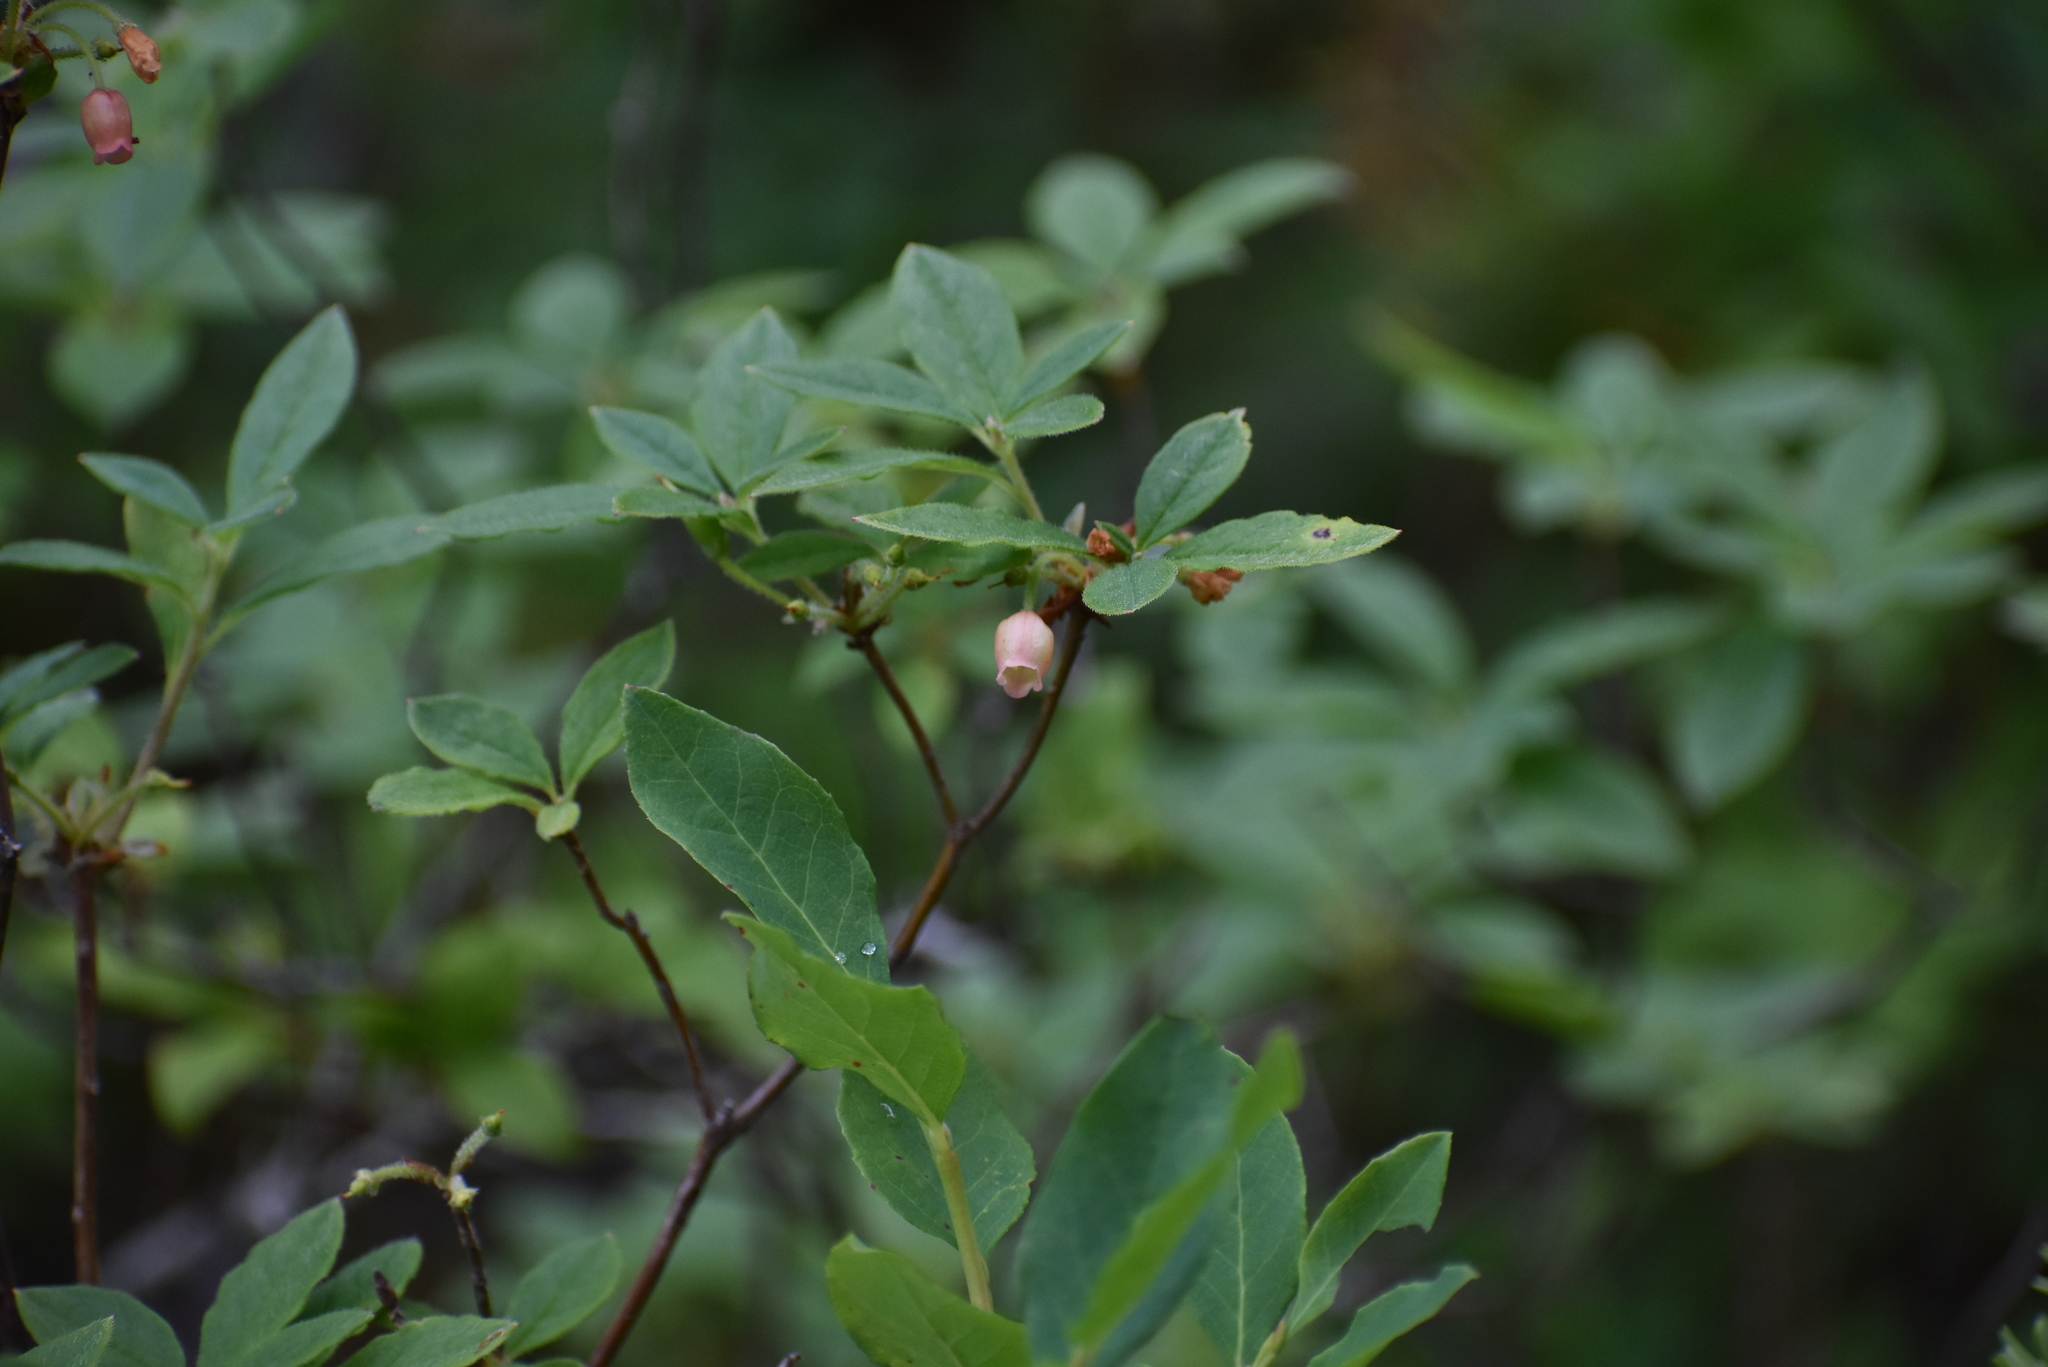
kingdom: Plantae
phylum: Tracheophyta
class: Magnoliopsida
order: Ericales
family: Ericaceae
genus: Rhododendron
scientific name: Rhododendron menziesii
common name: Pacific menziesia
